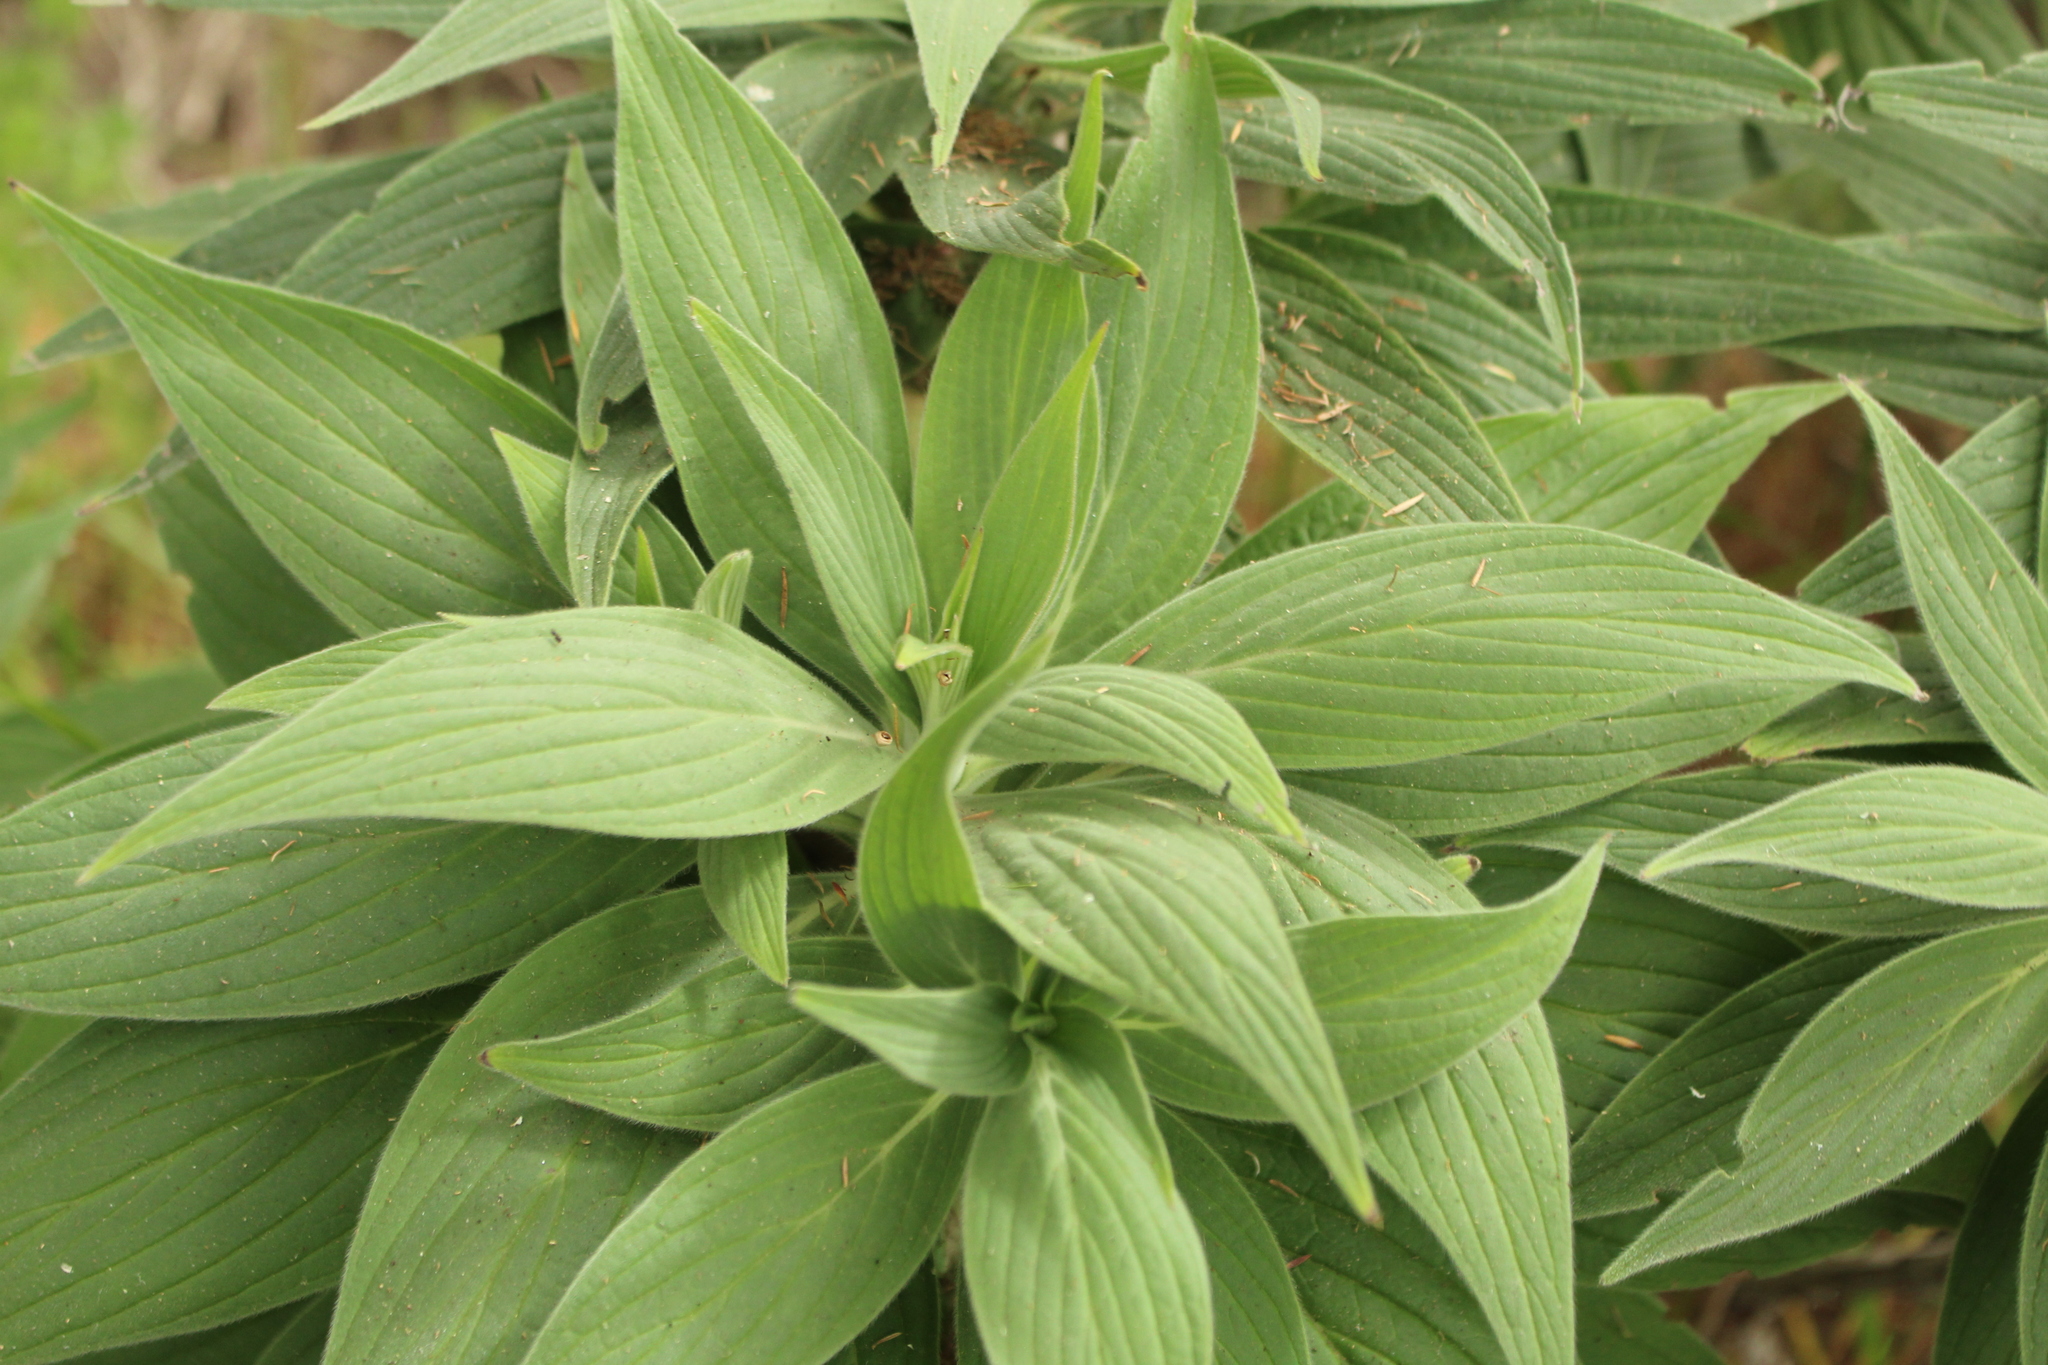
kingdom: Plantae
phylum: Tracheophyta
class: Magnoliopsida
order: Boraginales
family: Boraginaceae
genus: Echium
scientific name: Echium candicans
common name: Pride of madeira
